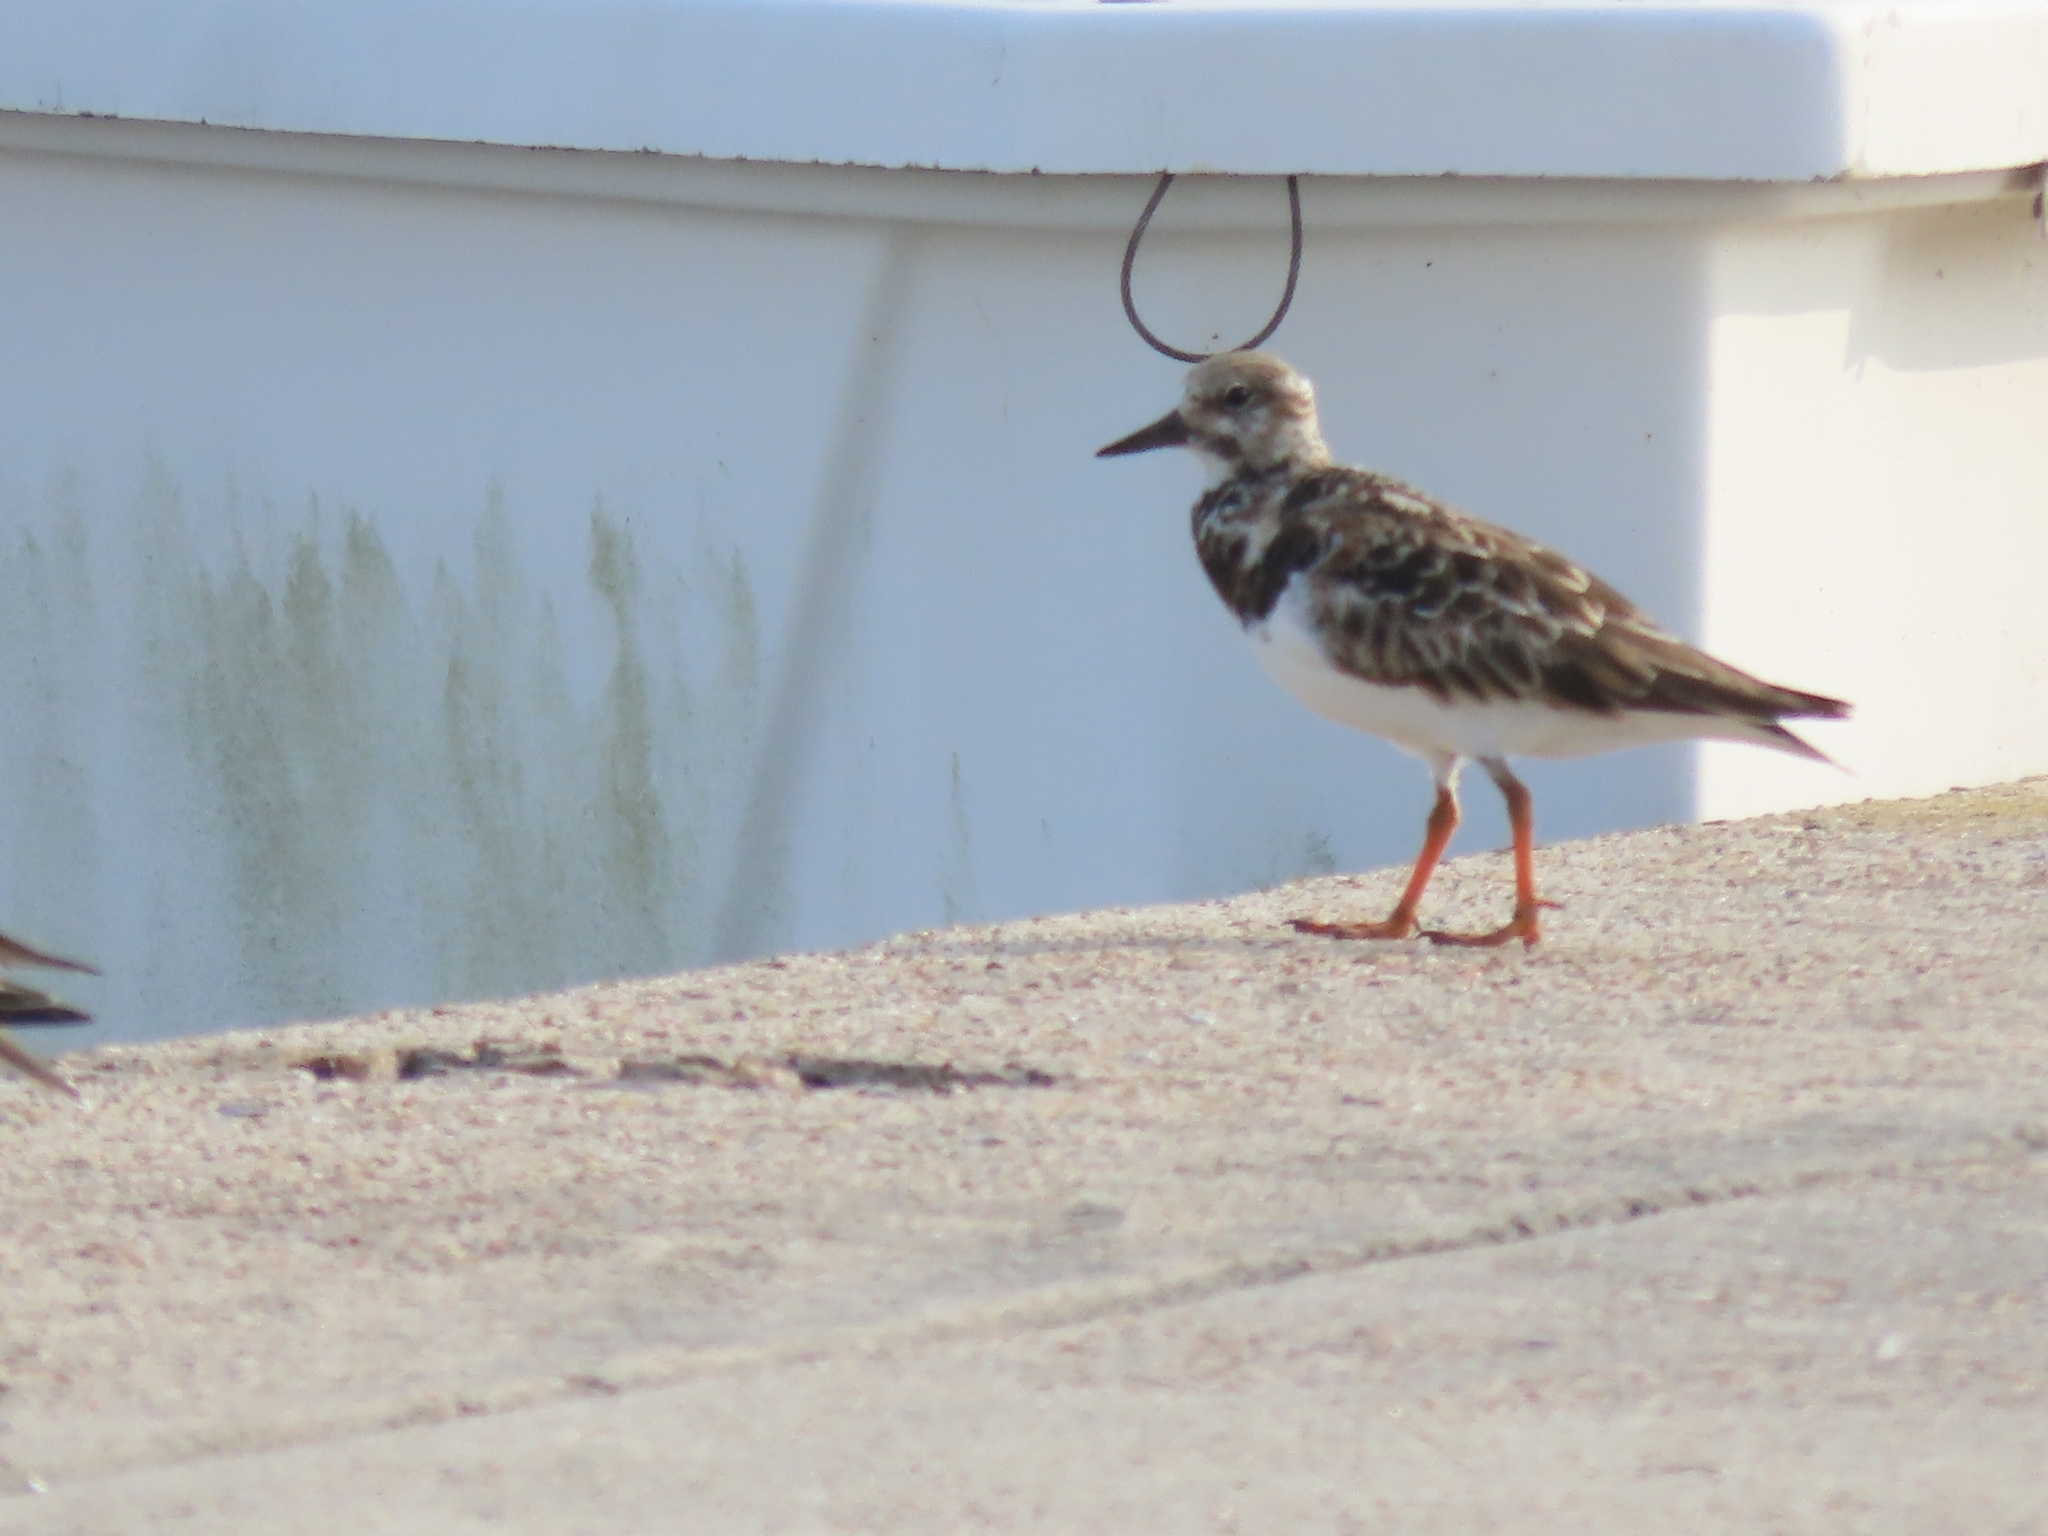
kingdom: Animalia
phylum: Chordata
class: Aves
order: Charadriiformes
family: Scolopacidae
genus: Arenaria
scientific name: Arenaria interpres
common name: Ruddy turnstone
